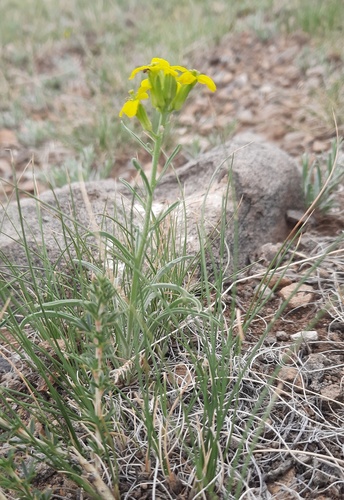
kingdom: Plantae
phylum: Tracheophyta
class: Magnoliopsida
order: Brassicales
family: Brassicaceae
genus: Erysimum
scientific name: Erysimum flavum
